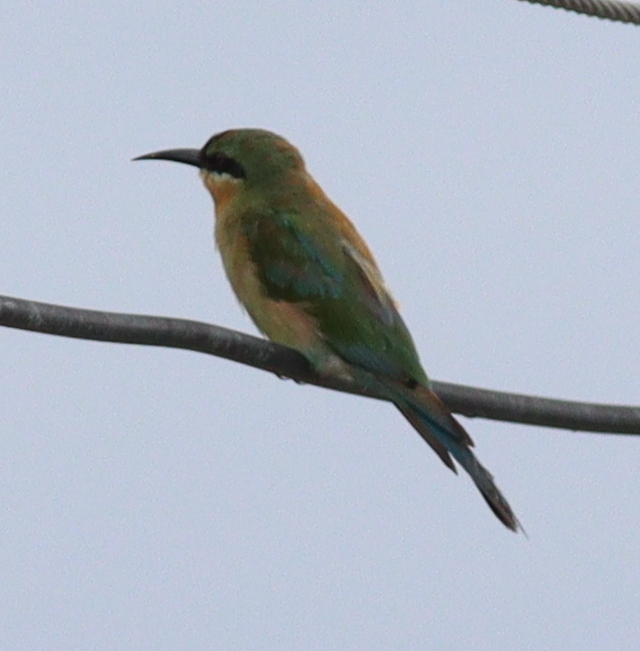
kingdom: Animalia
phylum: Chordata
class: Aves
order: Coraciiformes
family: Meropidae
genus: Merops
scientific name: Merops philippinus
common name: Blue-tailed bee-eater
